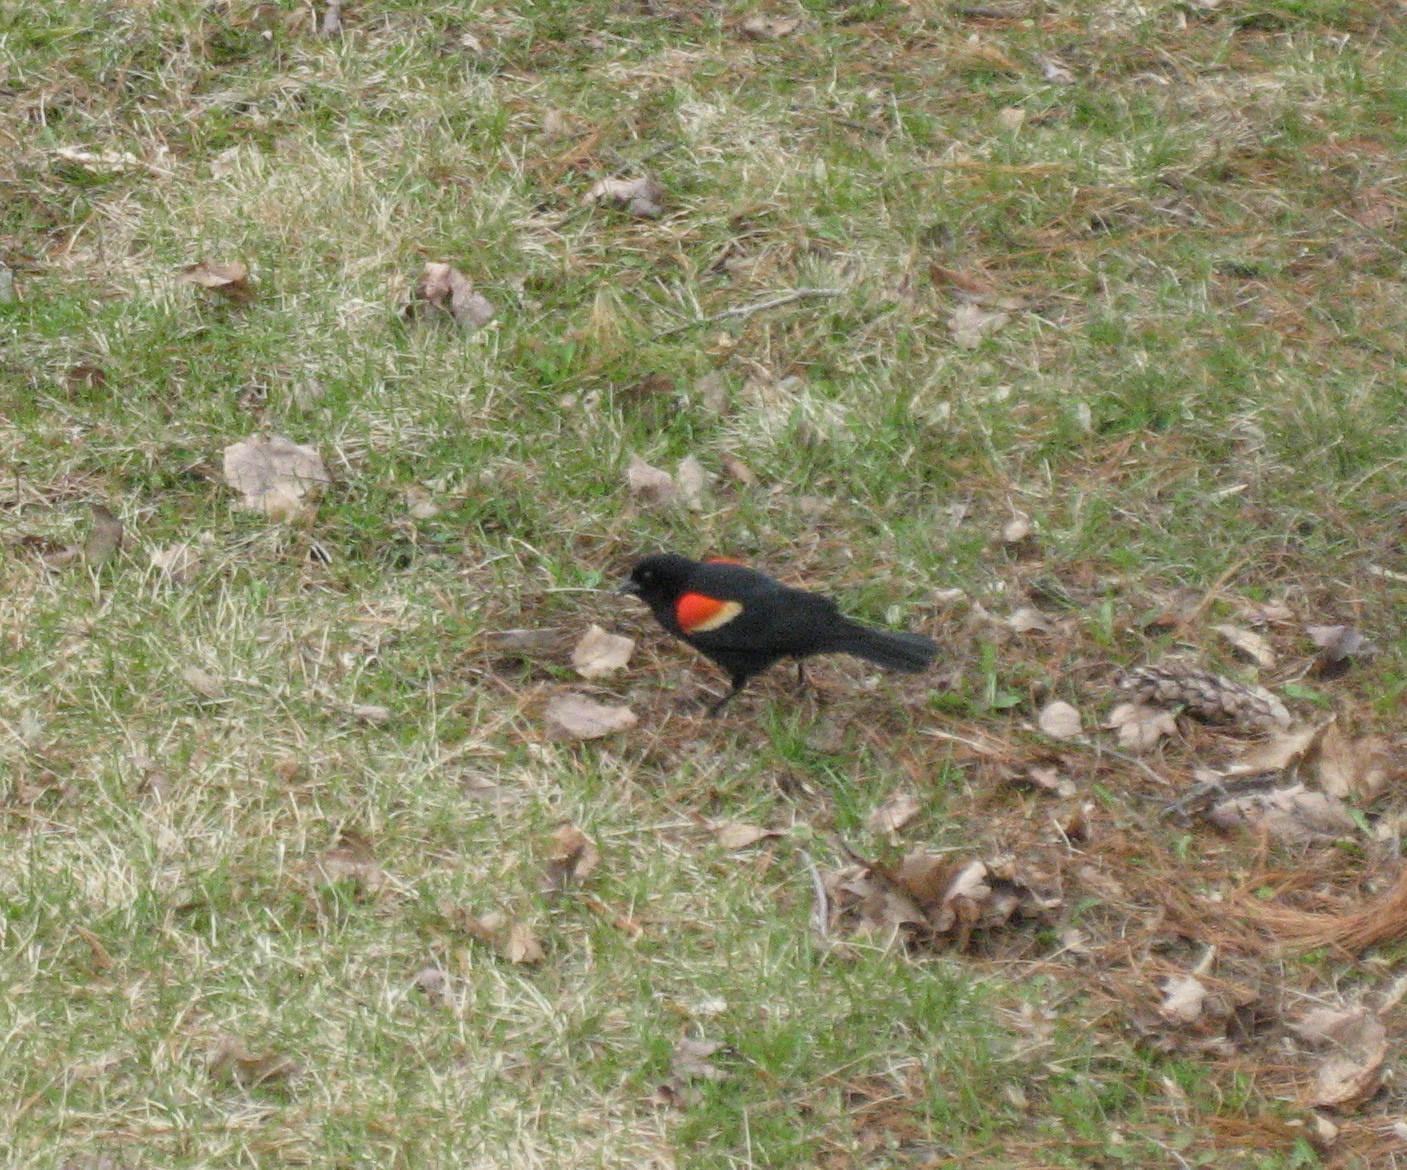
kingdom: Animalia
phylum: Chordata
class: Aves
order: Passeriformes
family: Icteridae
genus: Agelaius
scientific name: Agelaius phoeniceus
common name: Red-winged blackbird
